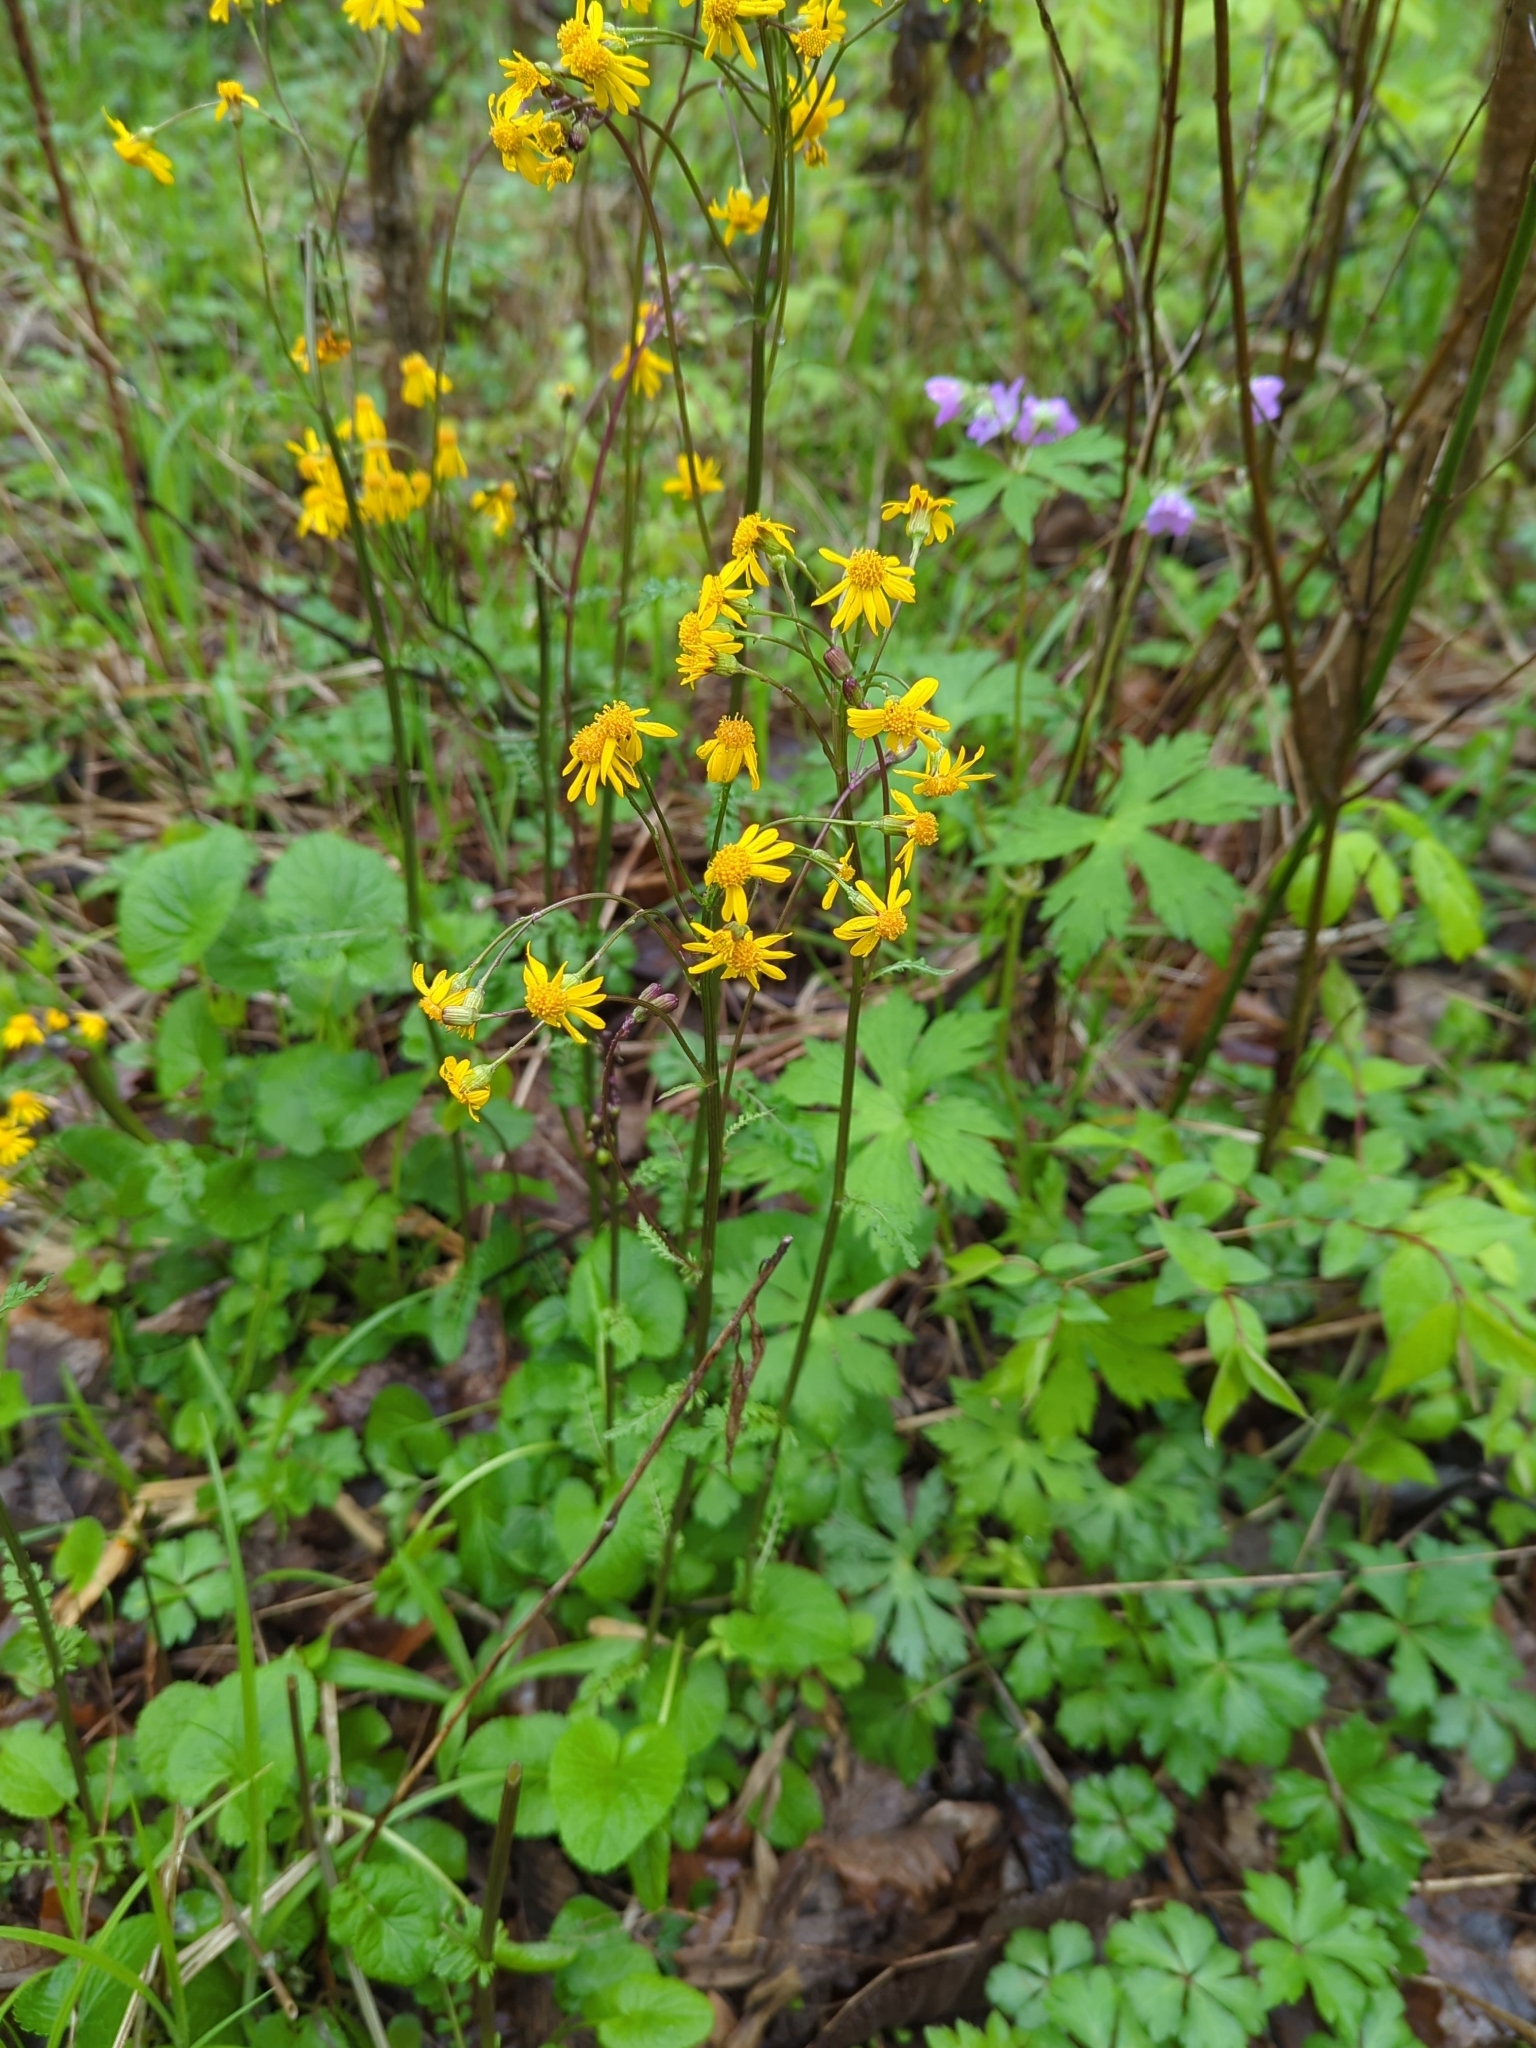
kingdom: Plantae
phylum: Tracheophyta
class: Magnoliopsida
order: Asterales
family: Asteraceae
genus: Packera
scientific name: Packera aurea
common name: Golden groundsel
